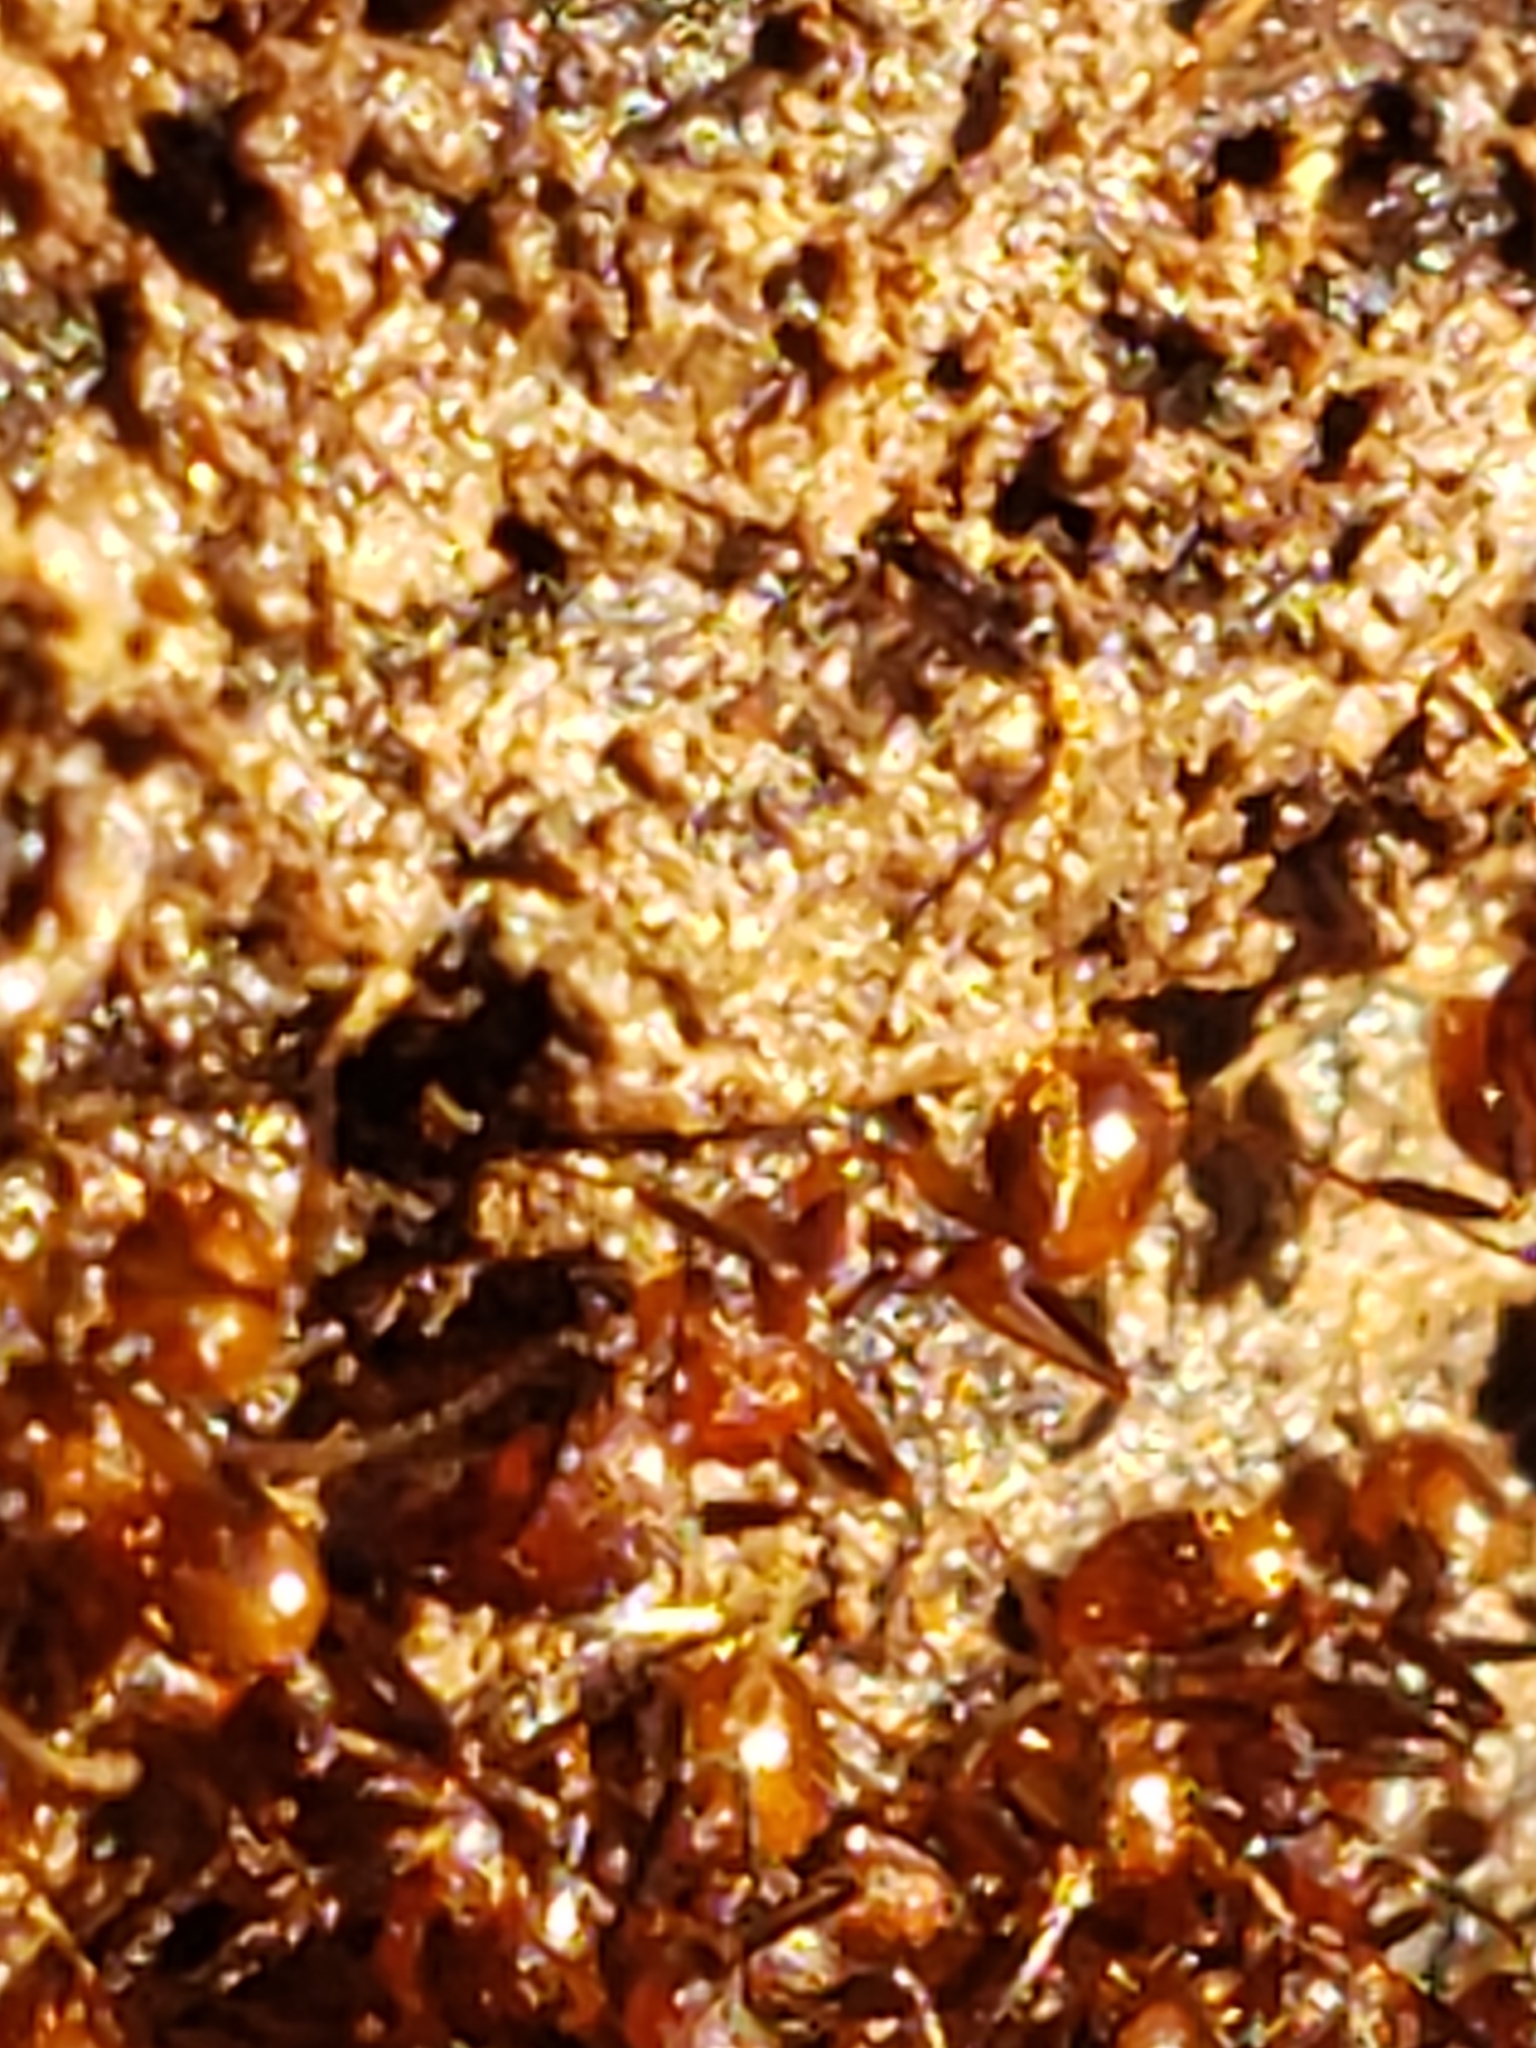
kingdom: Animalia
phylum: Arthropoda
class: Insecta
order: Hymenoptera
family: Formicidae
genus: Aphaenogaster
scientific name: Aphaenogaster fulva
